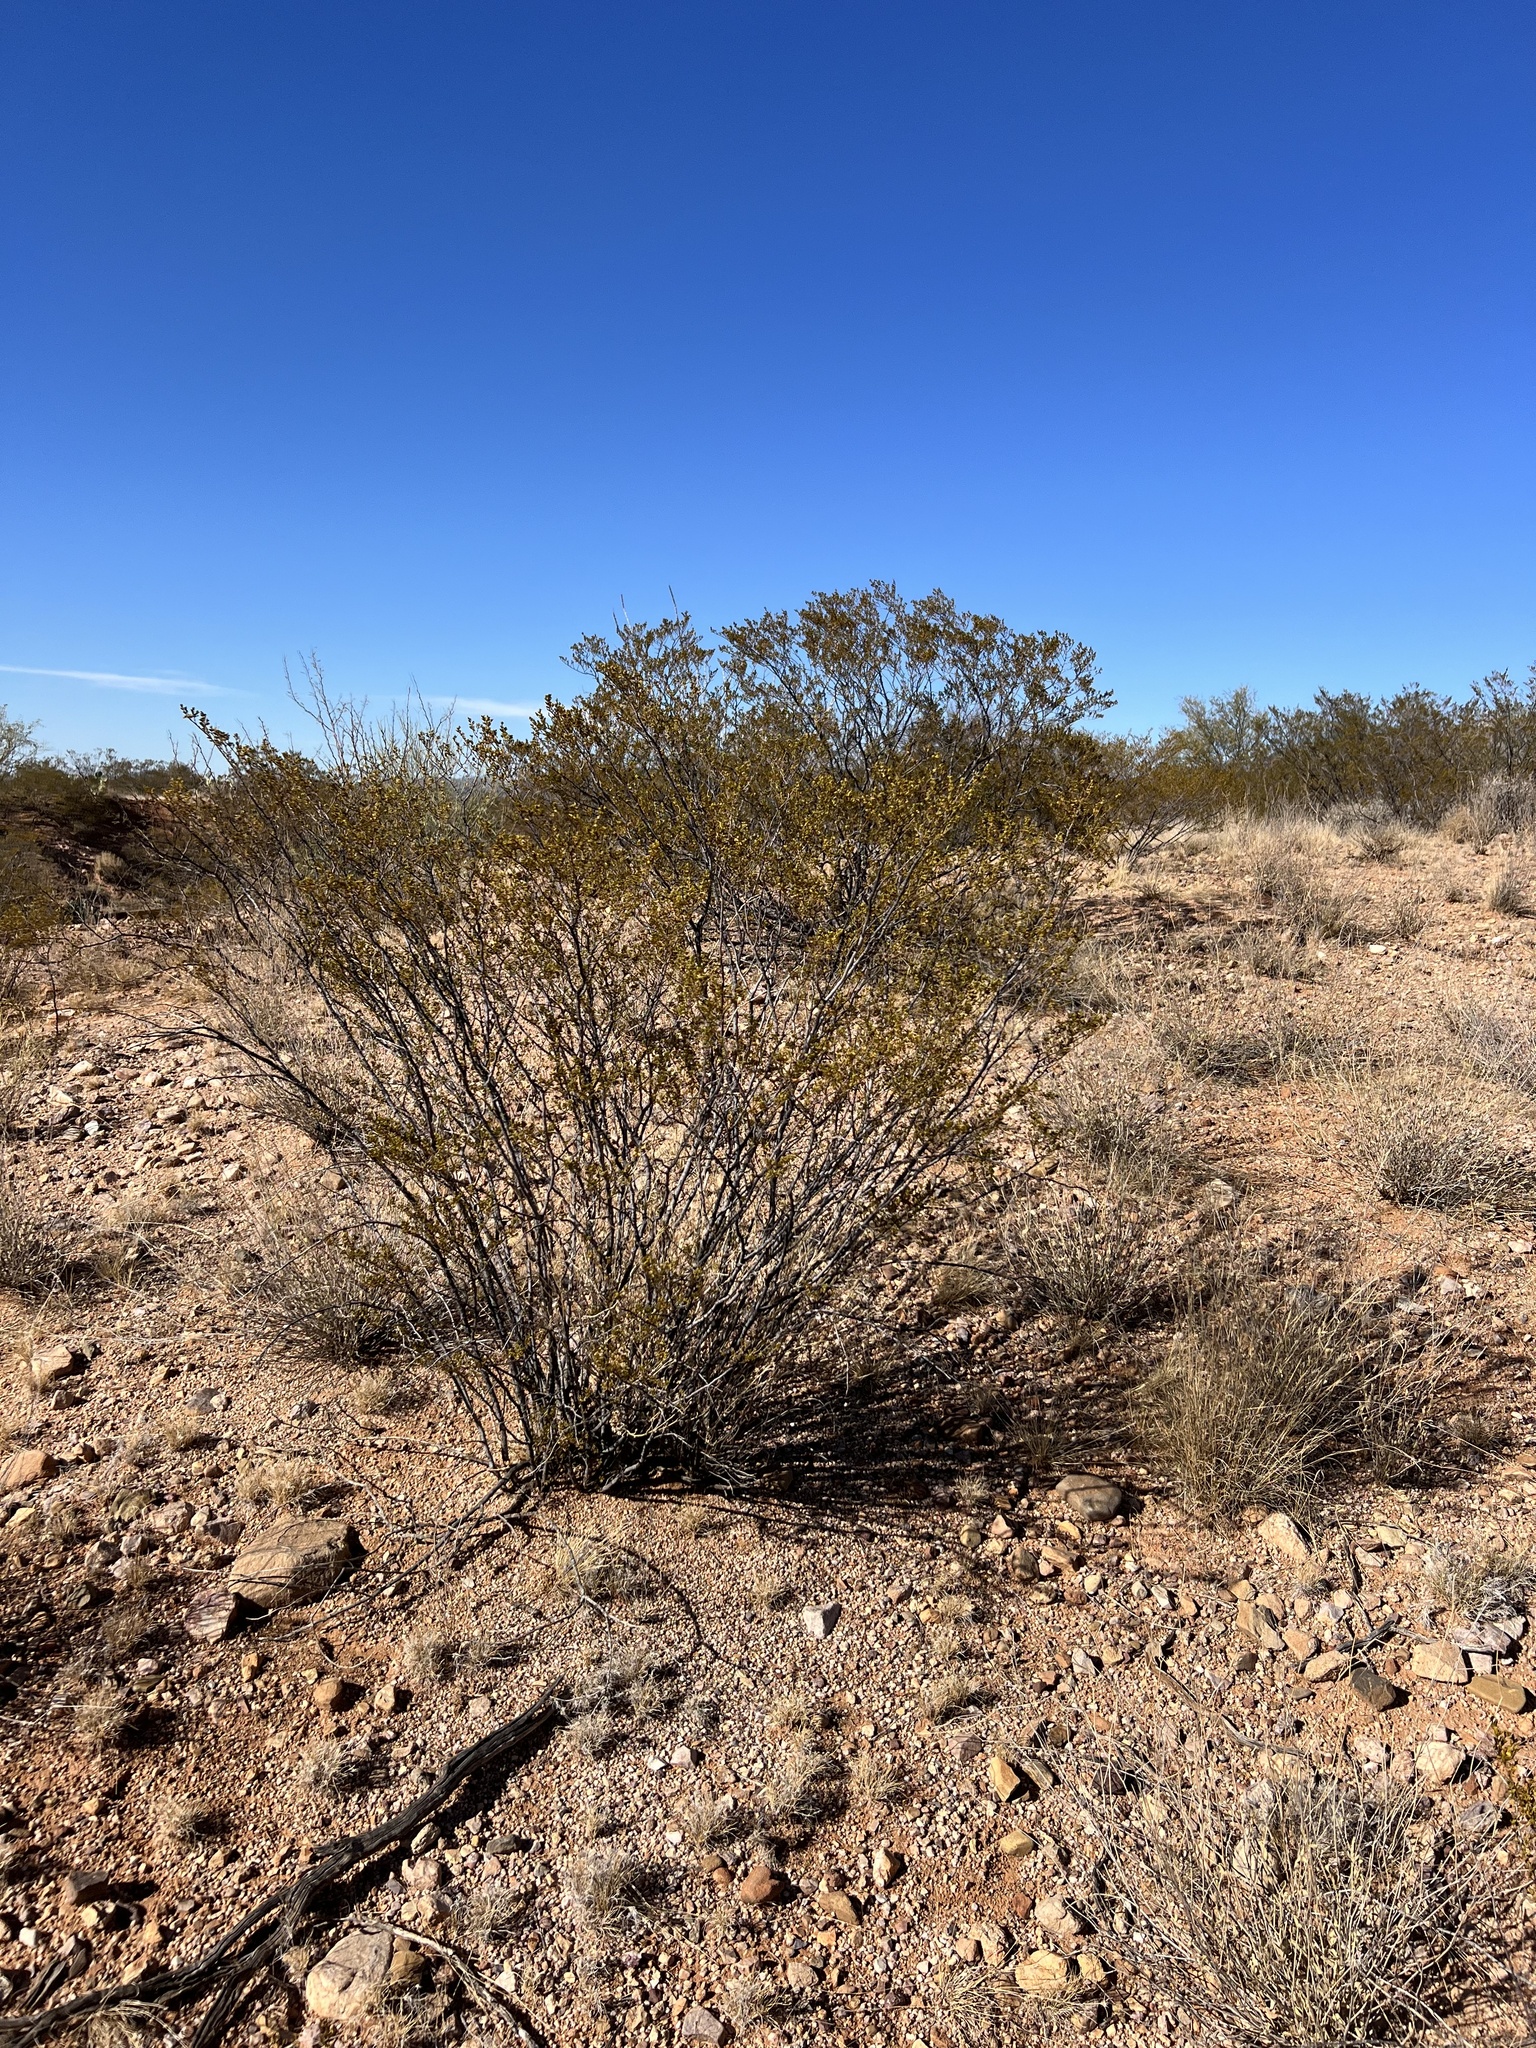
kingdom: Plantae
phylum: Tracheophyta
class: Magnoliopsida
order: Zygophyllales
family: Zygophyllaceae
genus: Larrea
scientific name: Larrea tridentata
